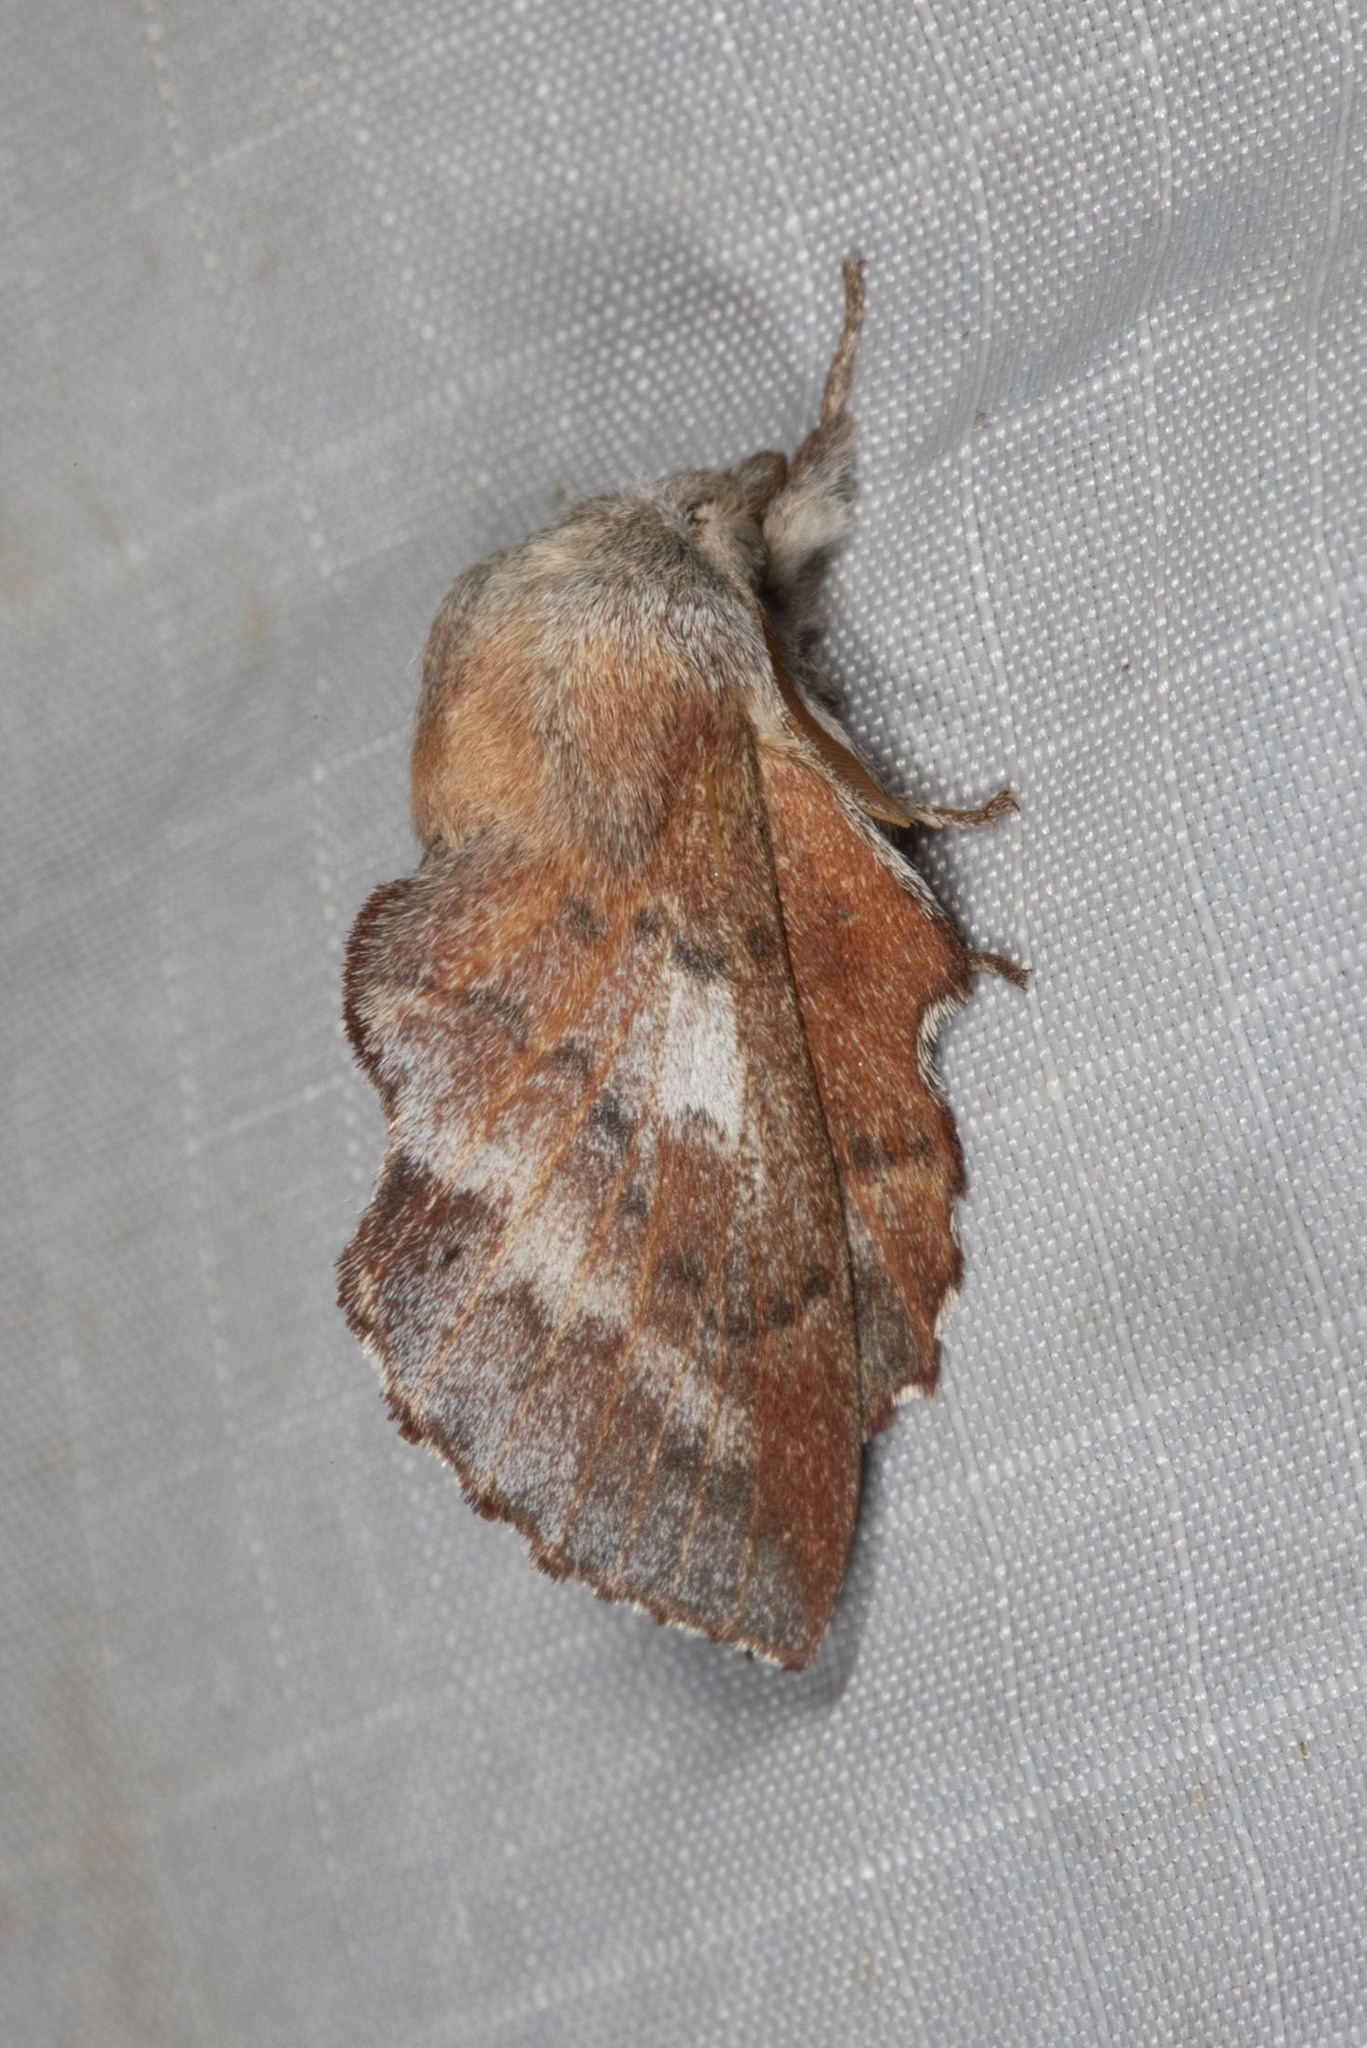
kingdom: Animalia
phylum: Arthropoda
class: Insecta
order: Lepidoptera
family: Lasiocampidae
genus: Phyllodesma
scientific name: Phyllodesma americana
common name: American lappet moth
